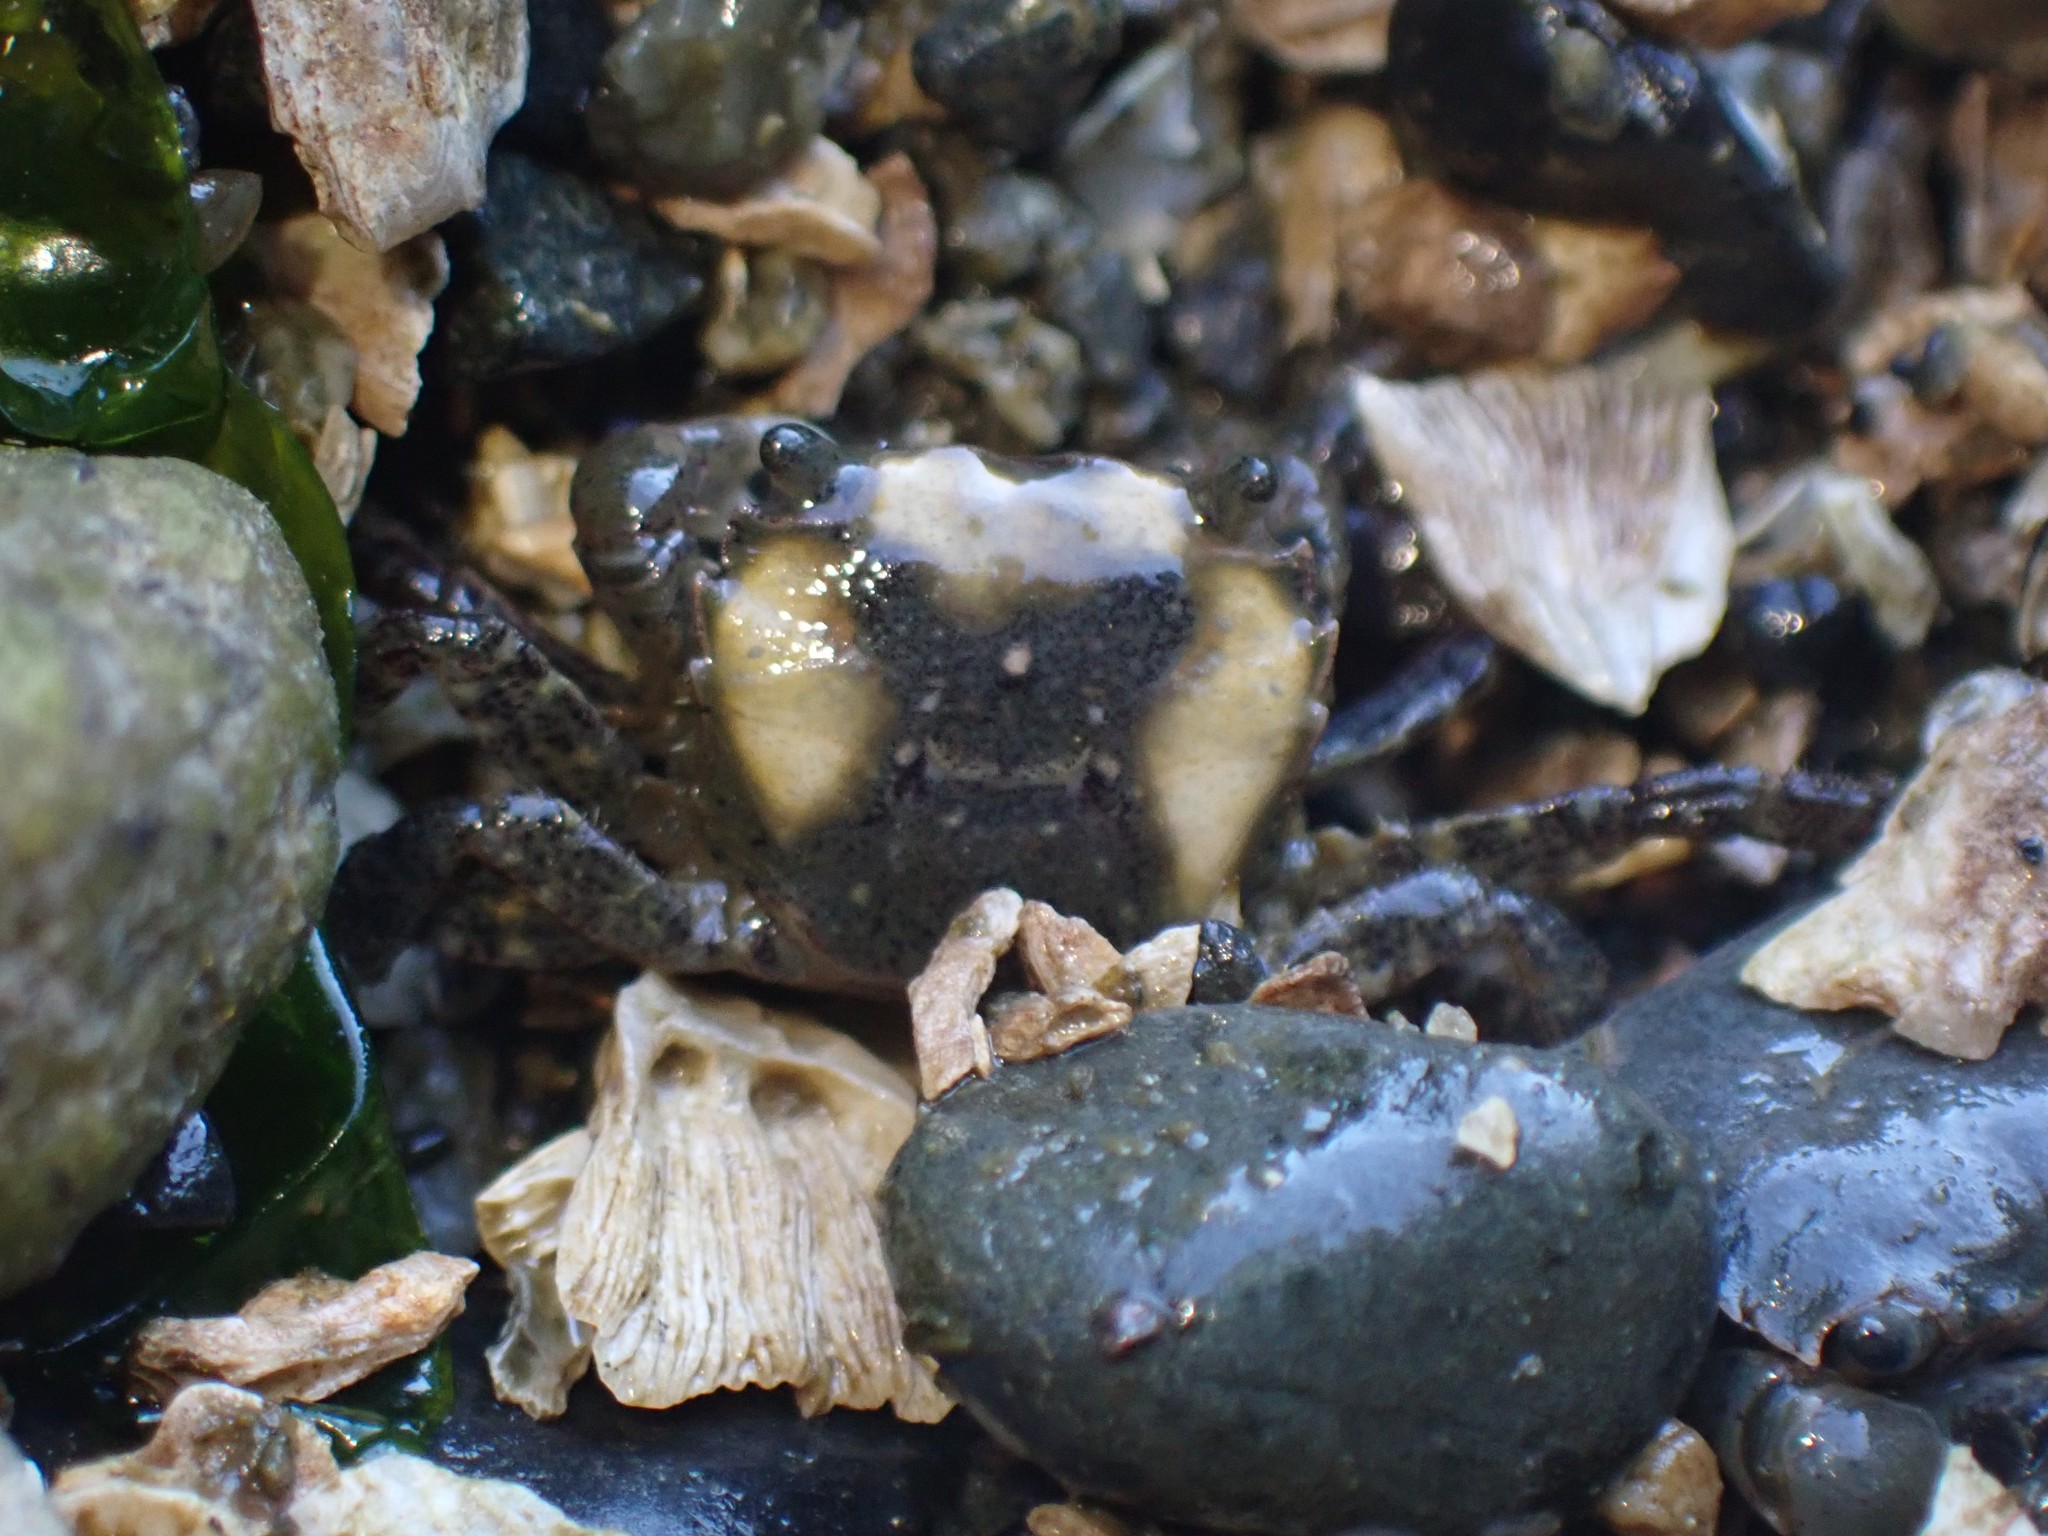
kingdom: Animalia
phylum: Arthropoda
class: Malacostraca
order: Decapoda
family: Varunidae
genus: Hemigrapsus
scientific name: Hemigrapsus oregonensis
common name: Yellow shore crab
